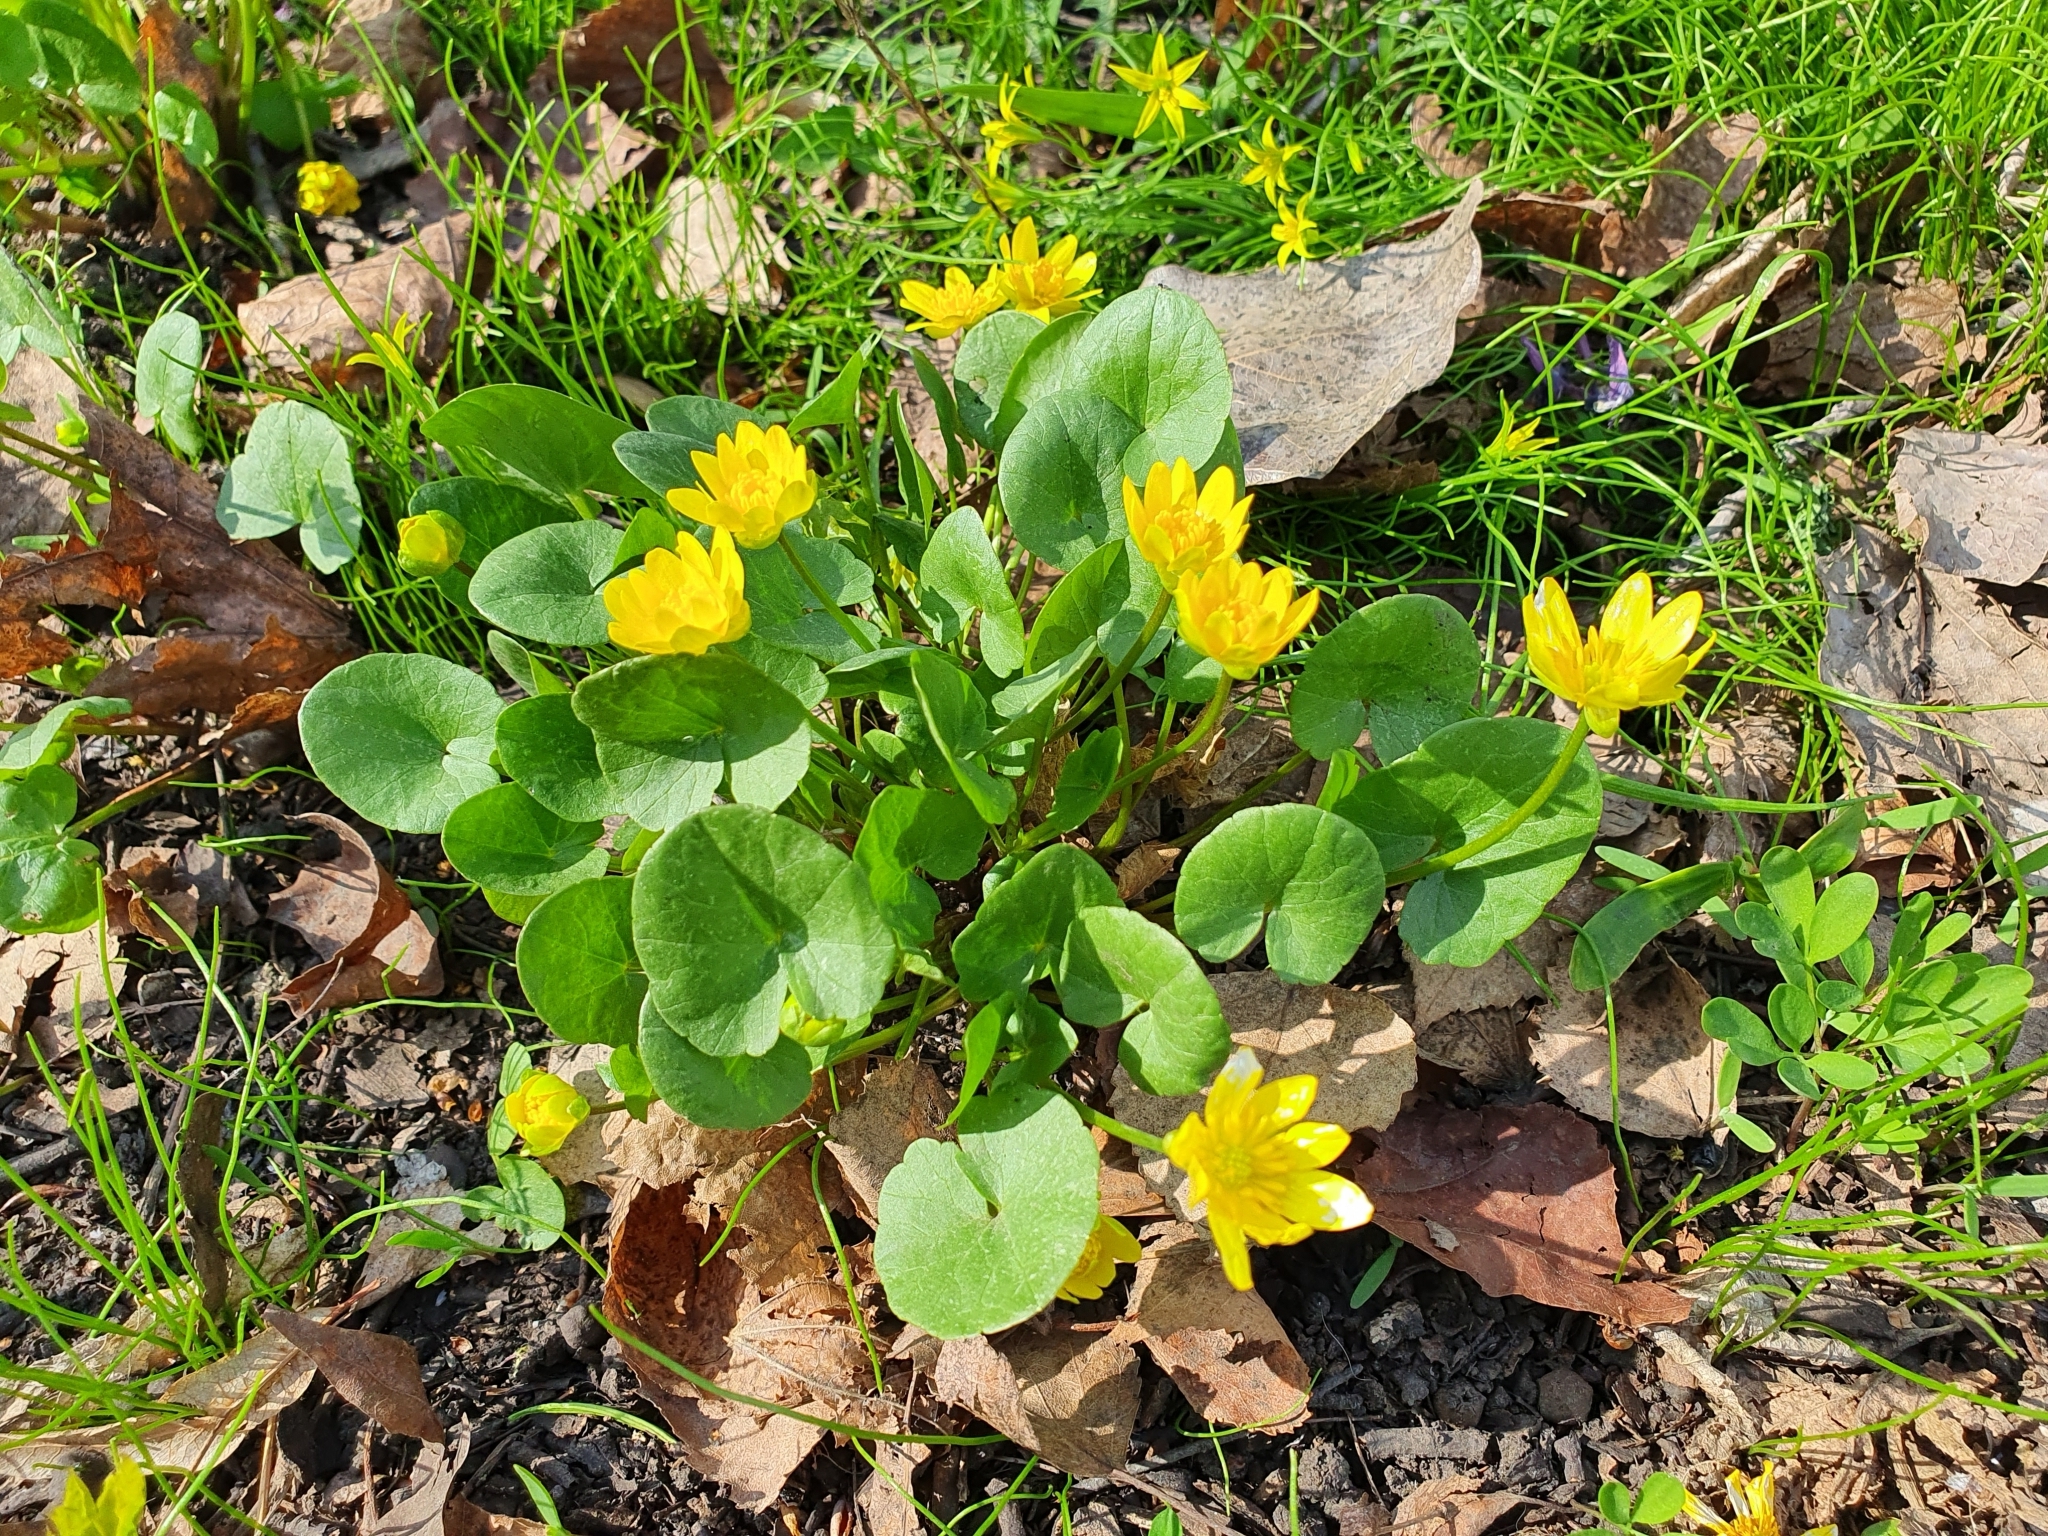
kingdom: Plantae
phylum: Tracheophyta
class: Magnoliopsida
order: Ranunculales
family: Ranunculaceae
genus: Ficaria
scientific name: Ficaria verna
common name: Lesser celandine
